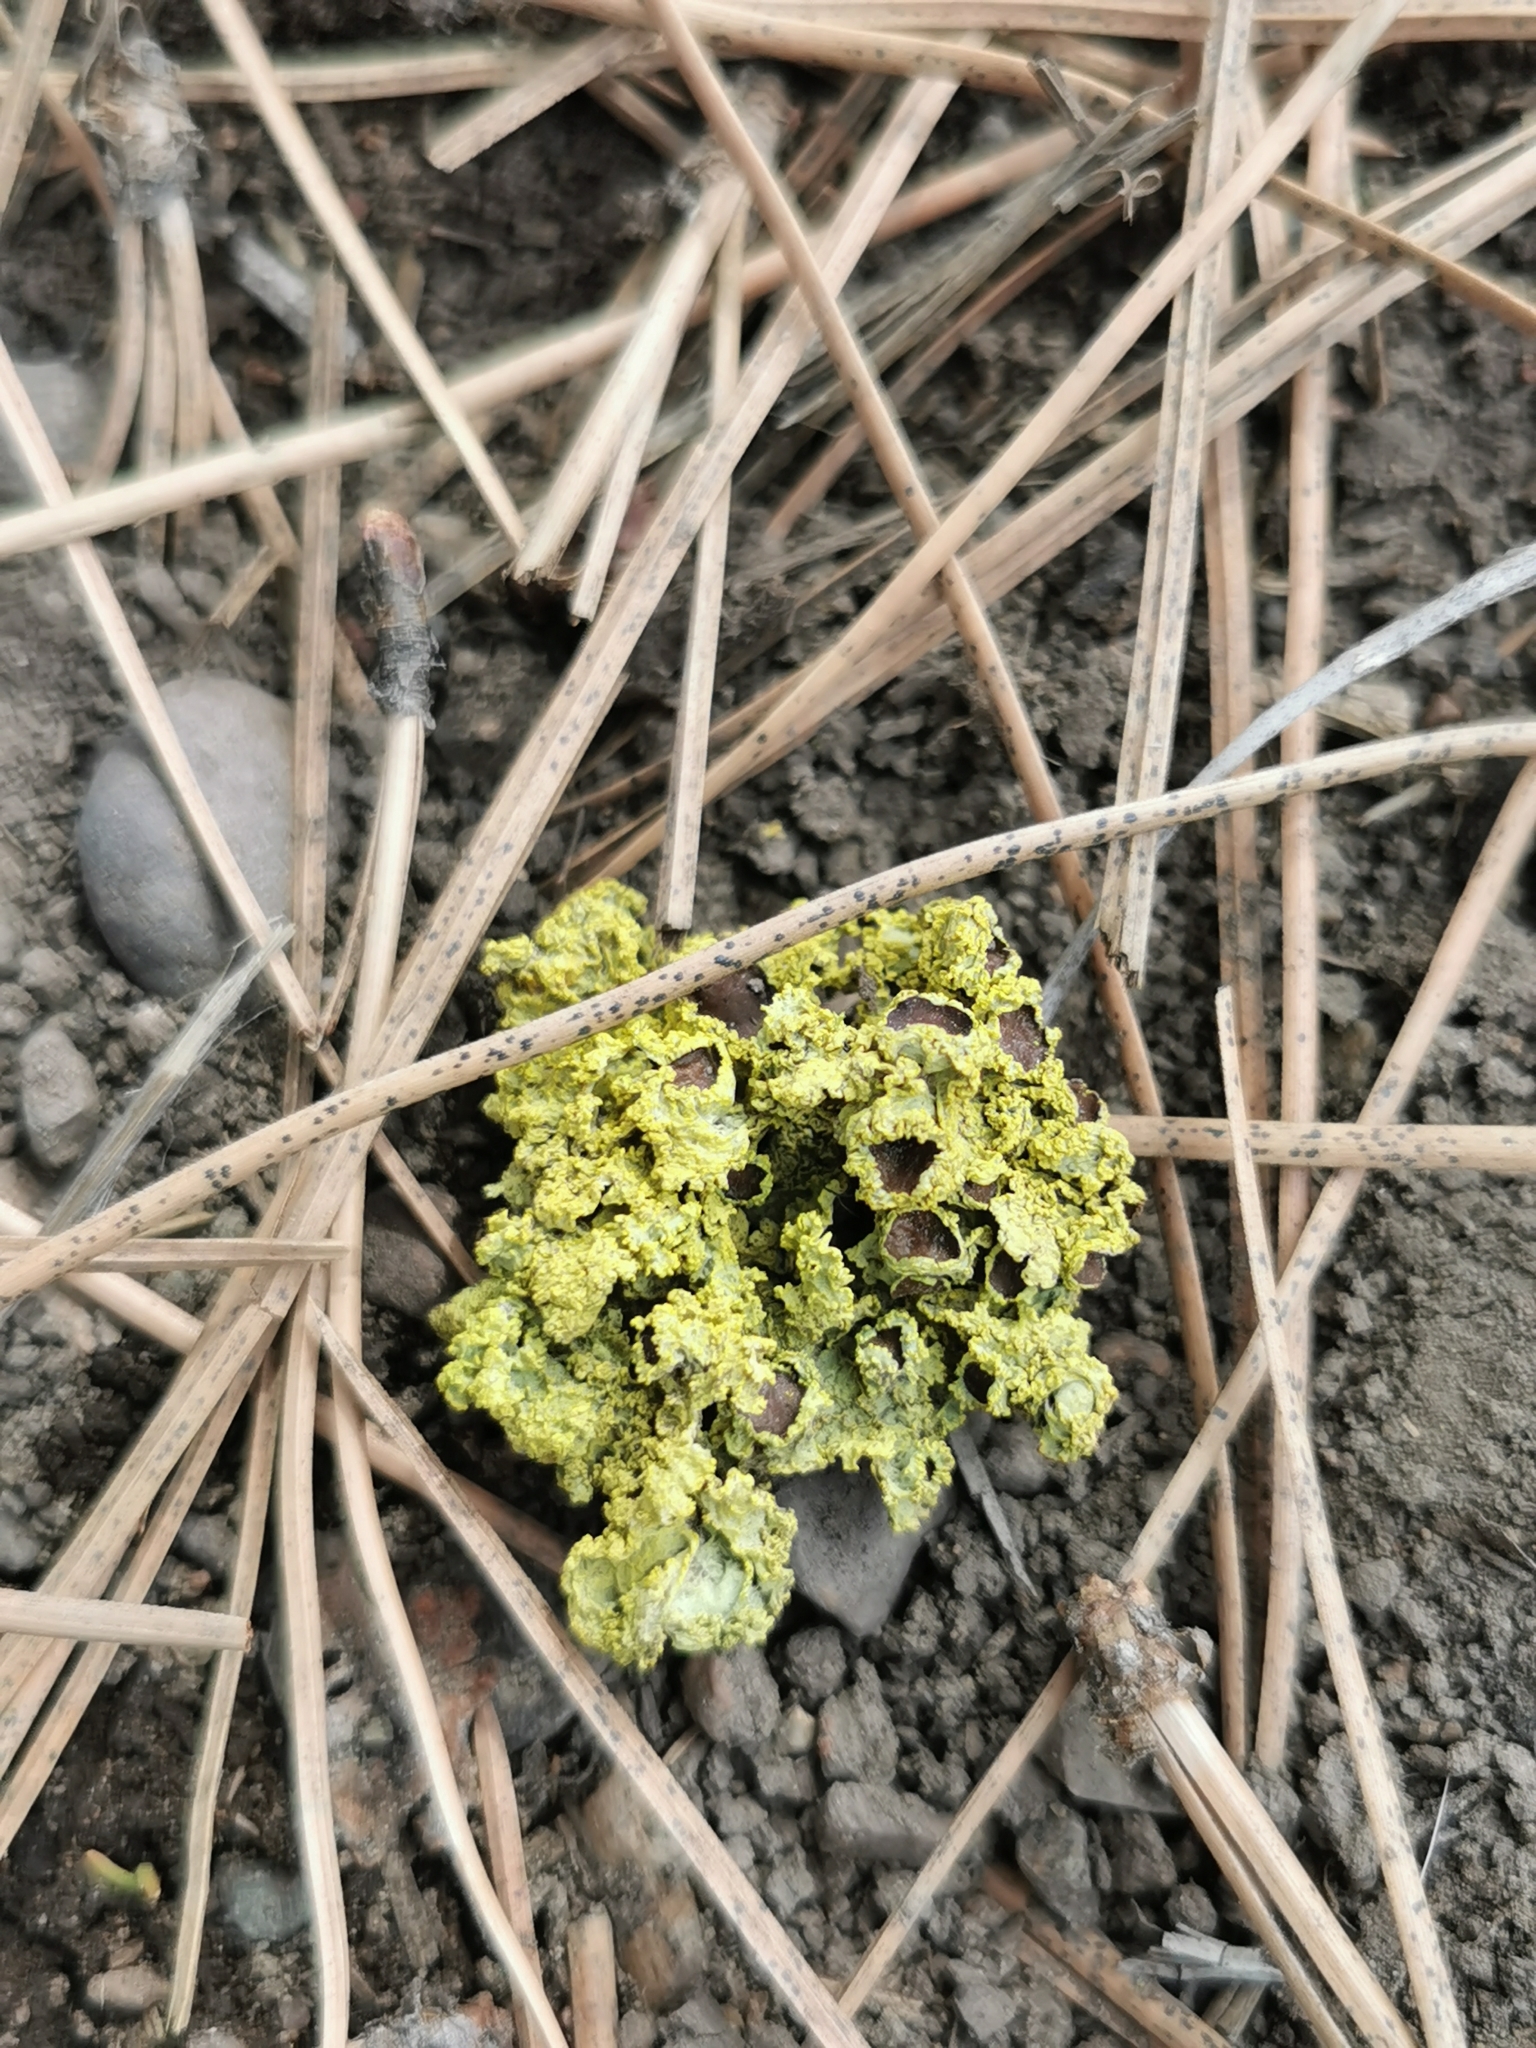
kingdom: Fungi
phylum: Ascomycota
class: Lecanoromycetes
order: Lecanorales
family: Parmeliaceae
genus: Vulpicida
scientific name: Vulpicida canadensis
